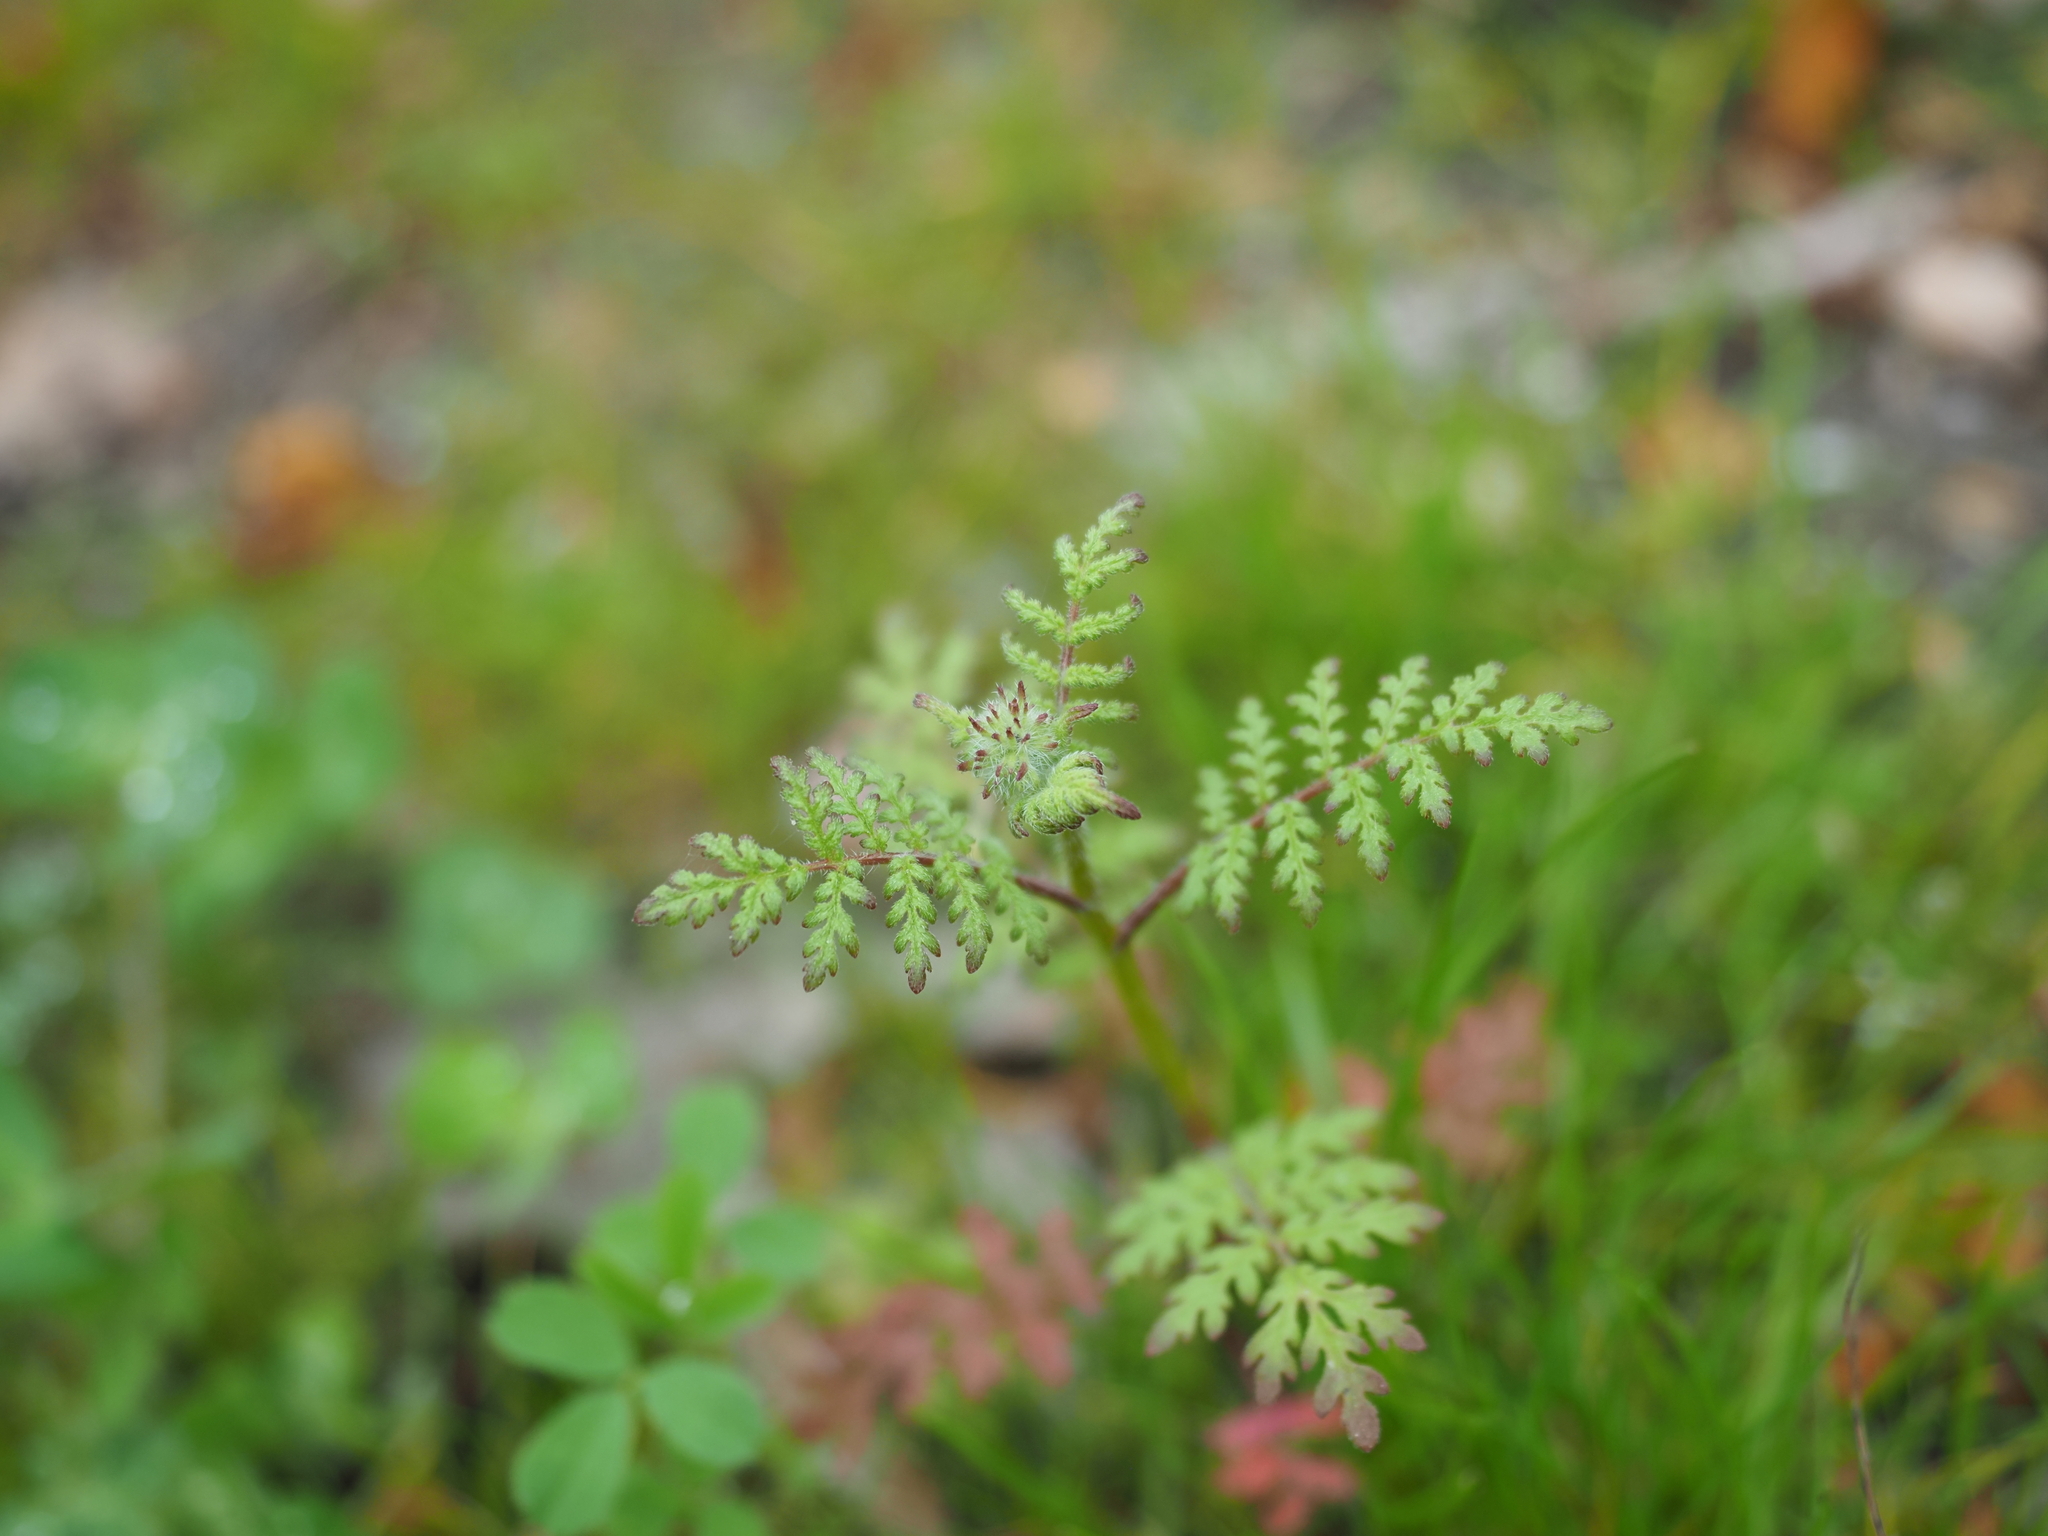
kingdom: Plantae
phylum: Tracheophyta
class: Magnoliopsida
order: Boraginales
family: Hydrophyllaceae
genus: Phacelia
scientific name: Phacelia tanacetifolia
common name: Phacelia
